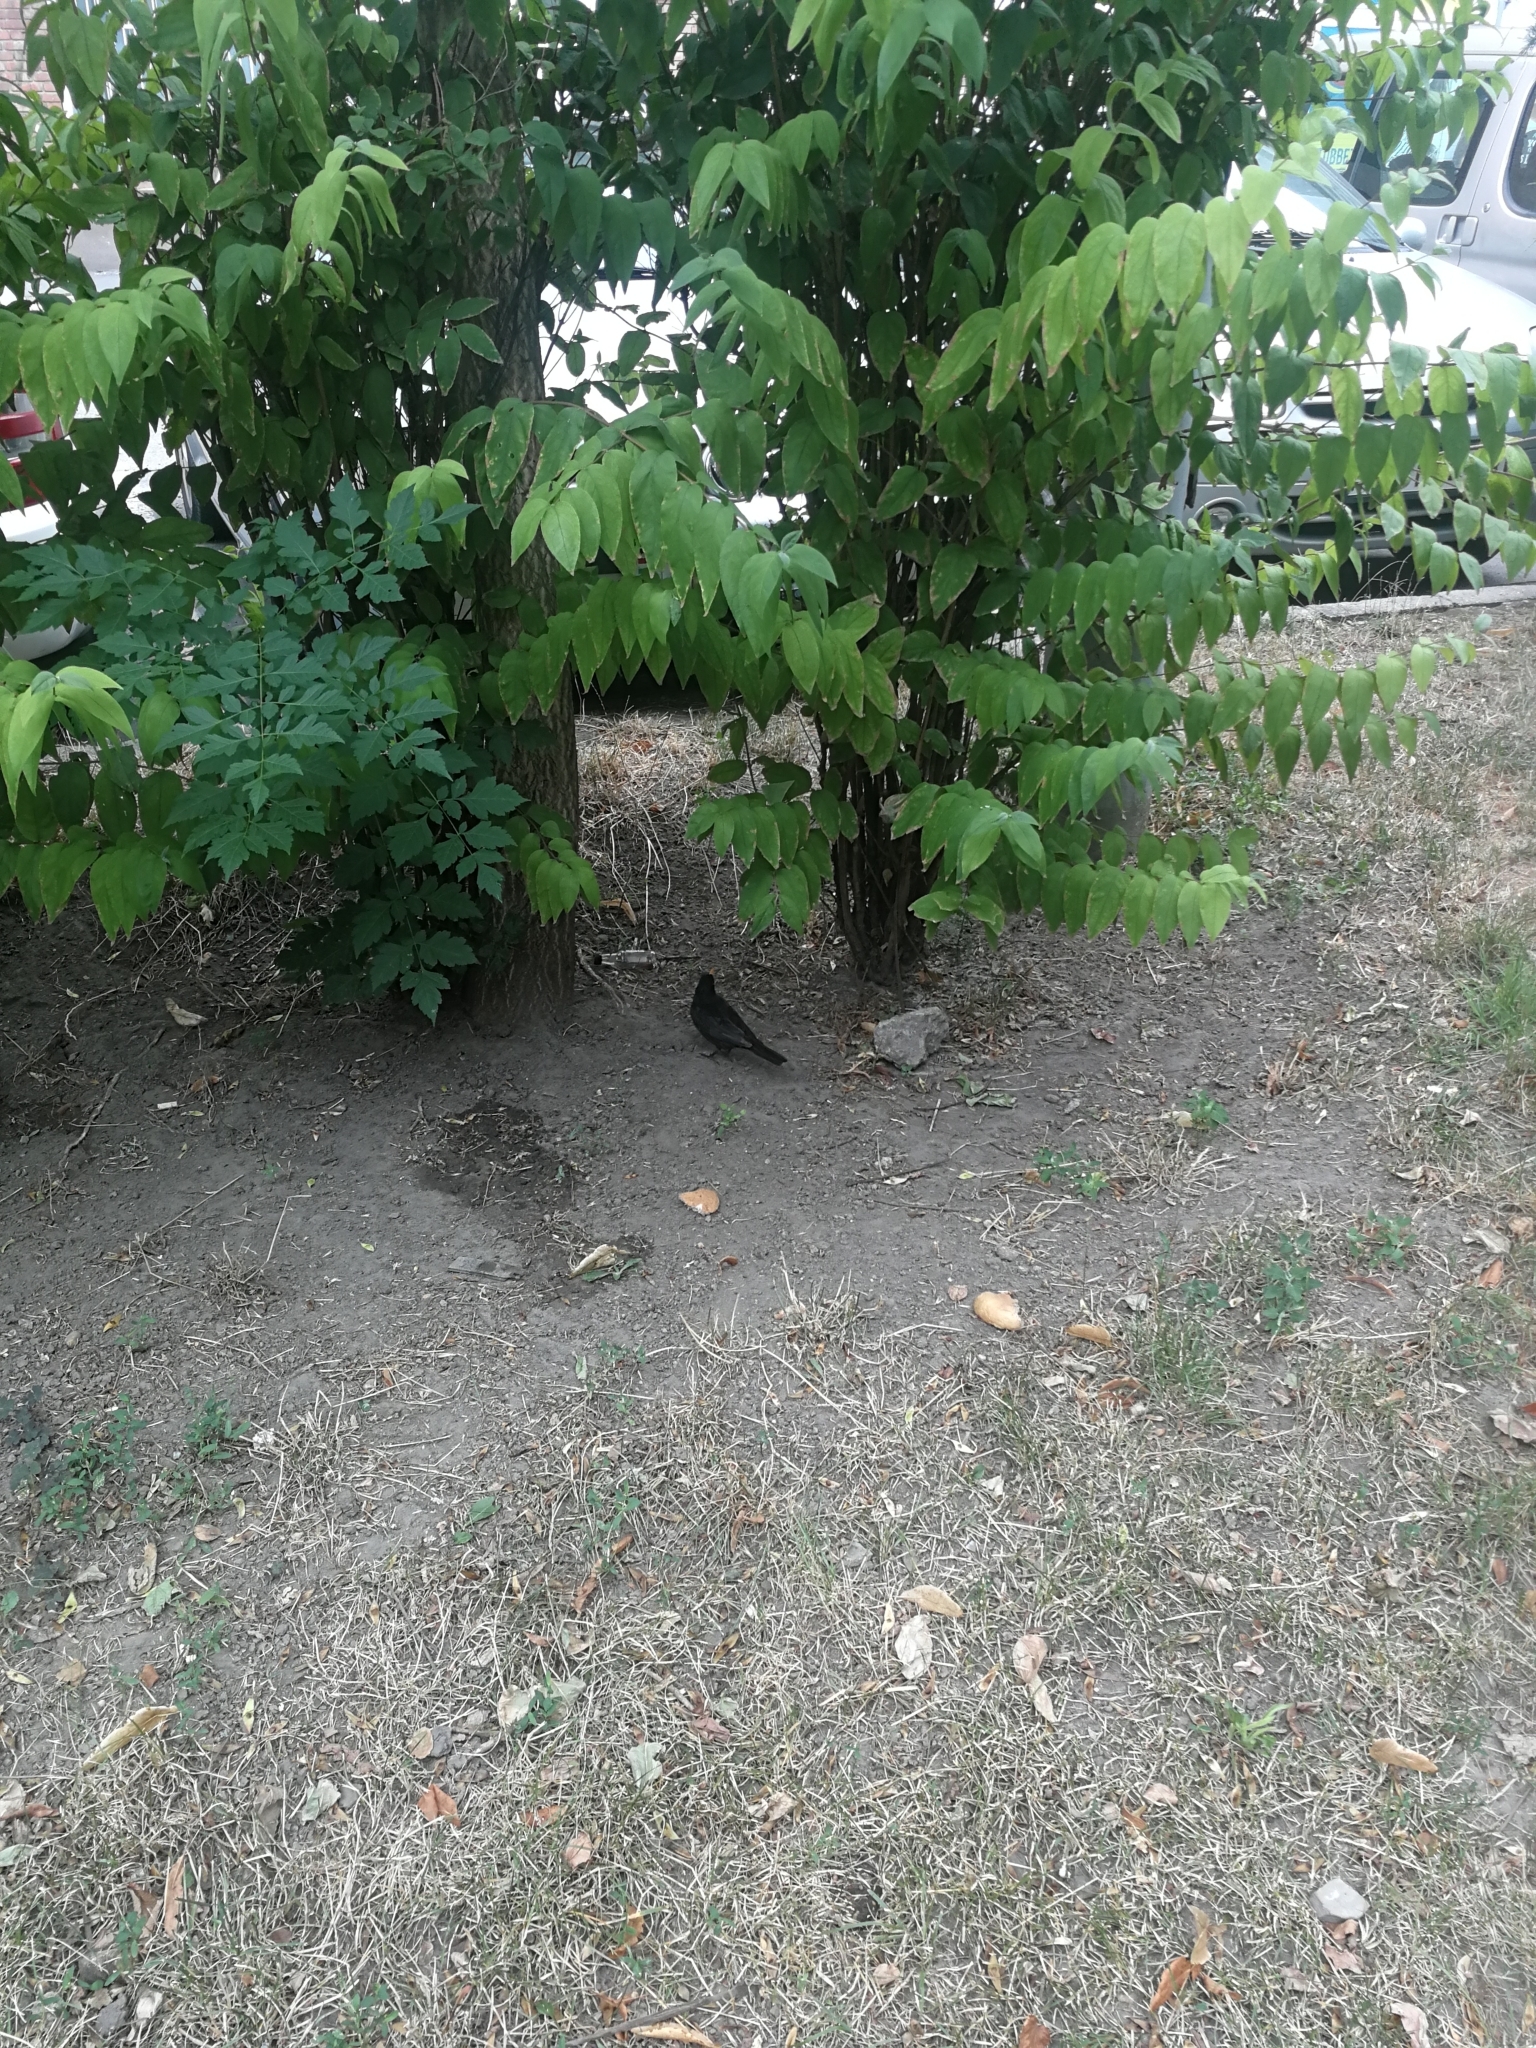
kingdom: Animalia
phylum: Chordata
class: Aves
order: Passeriformes
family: Turdidae
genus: Turdus
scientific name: Turdus merula
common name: Common blackbird
